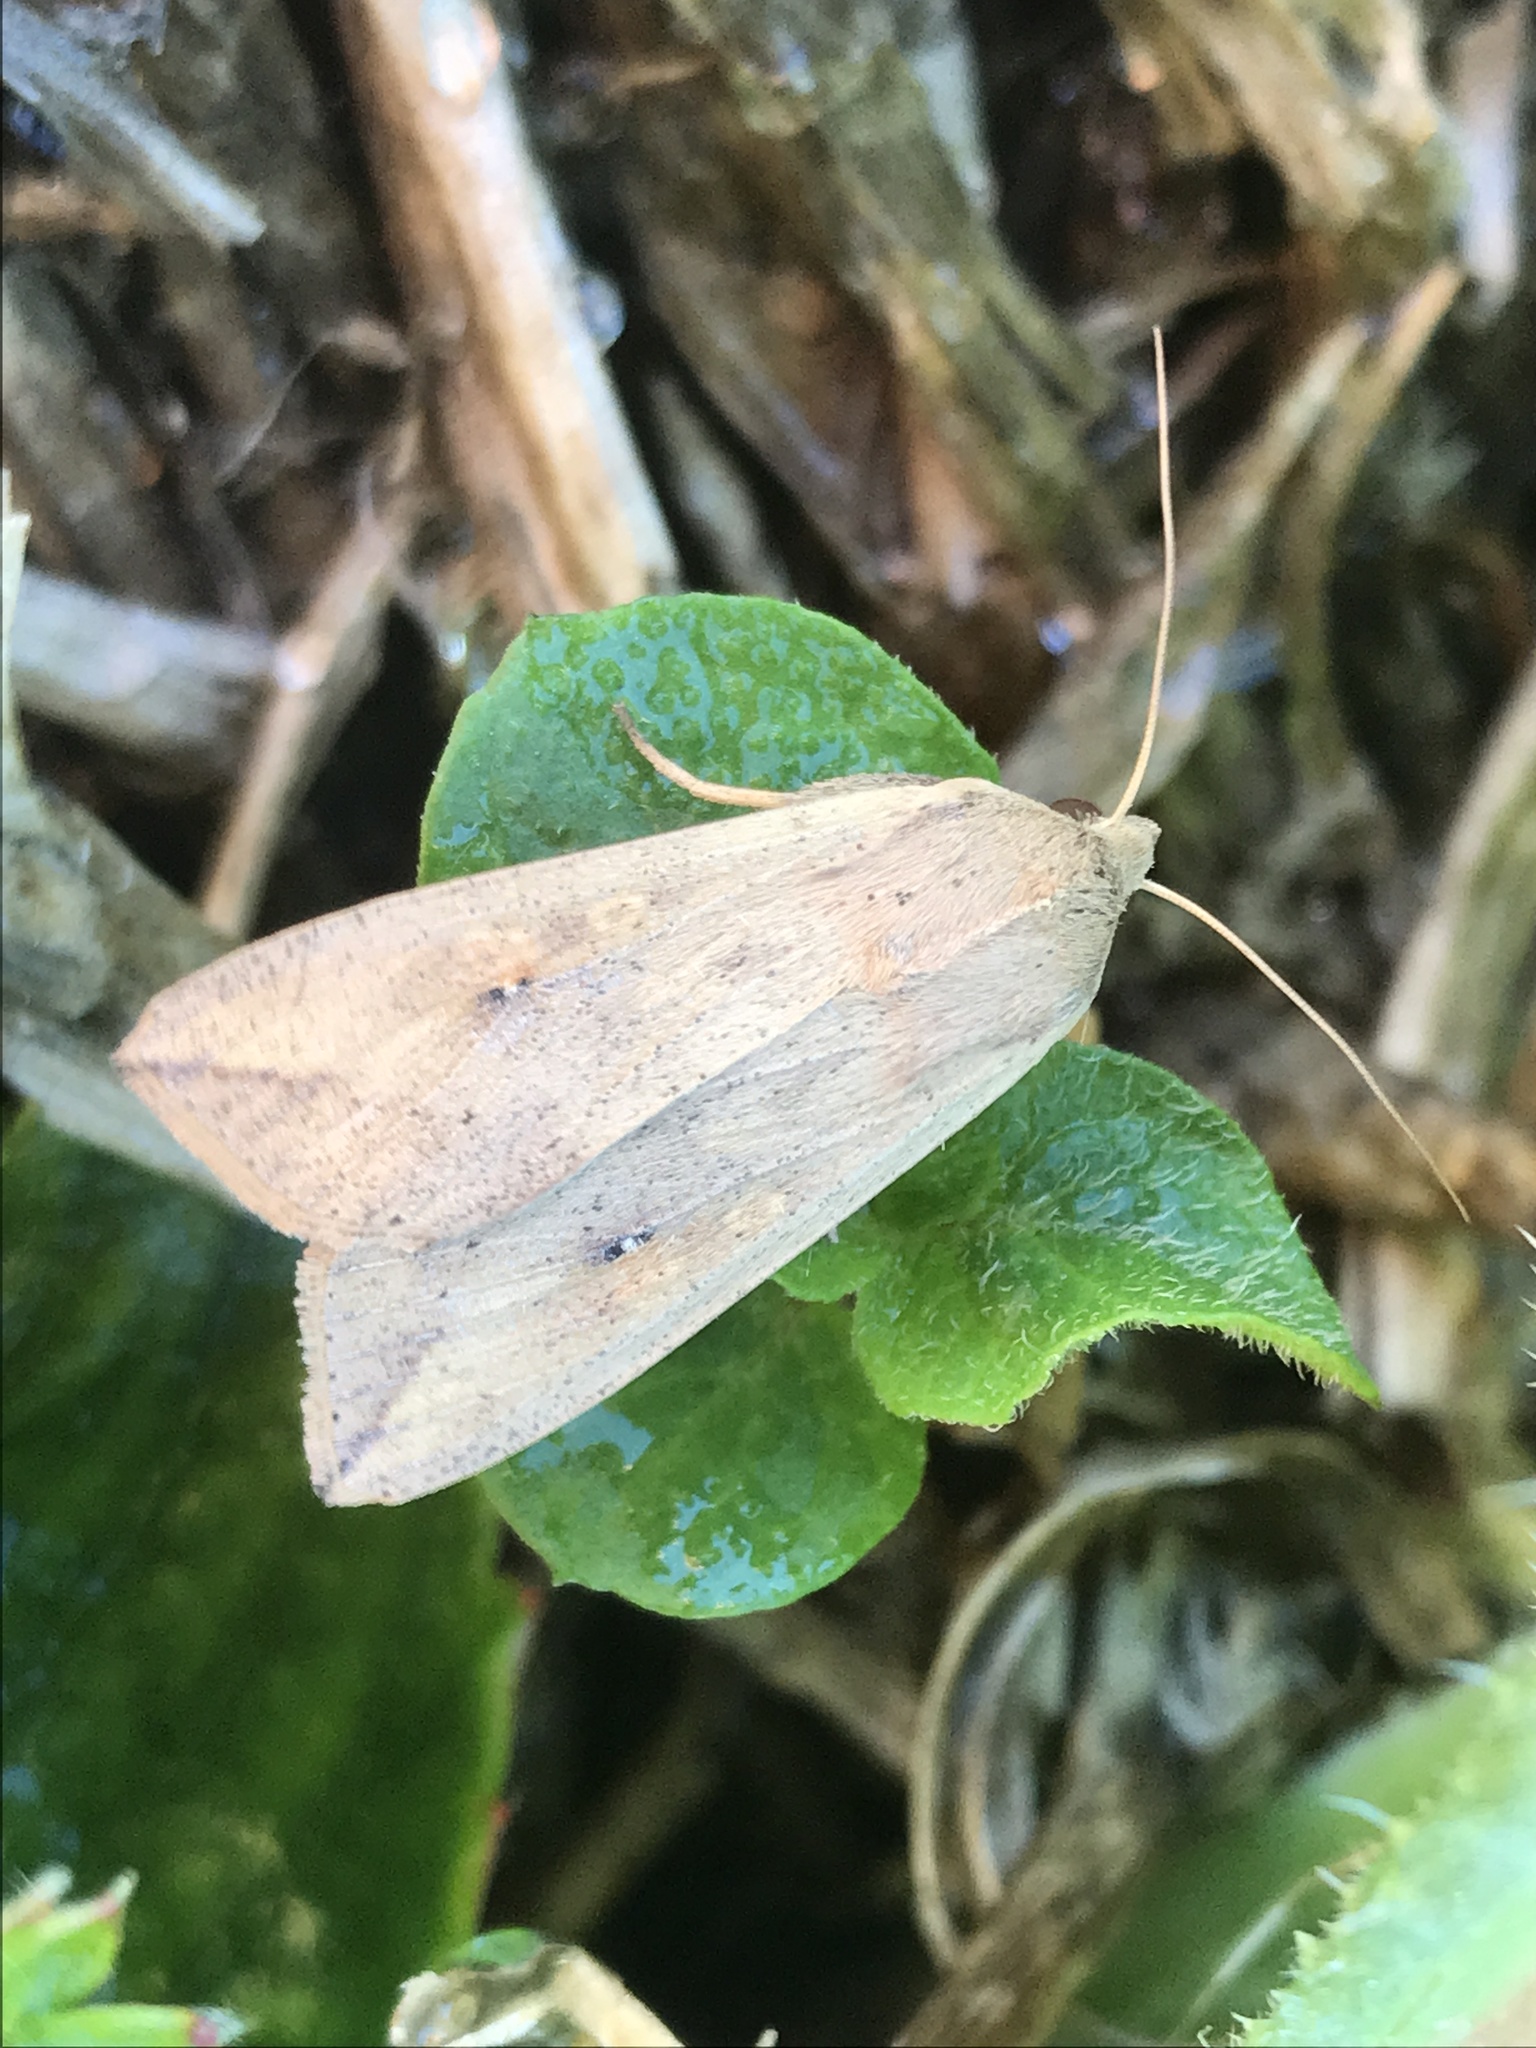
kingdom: Animalia
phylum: Arthropoda
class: Insecta
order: Lepidoptera
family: Noctuidae
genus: Mythimna
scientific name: Mythimna separata
